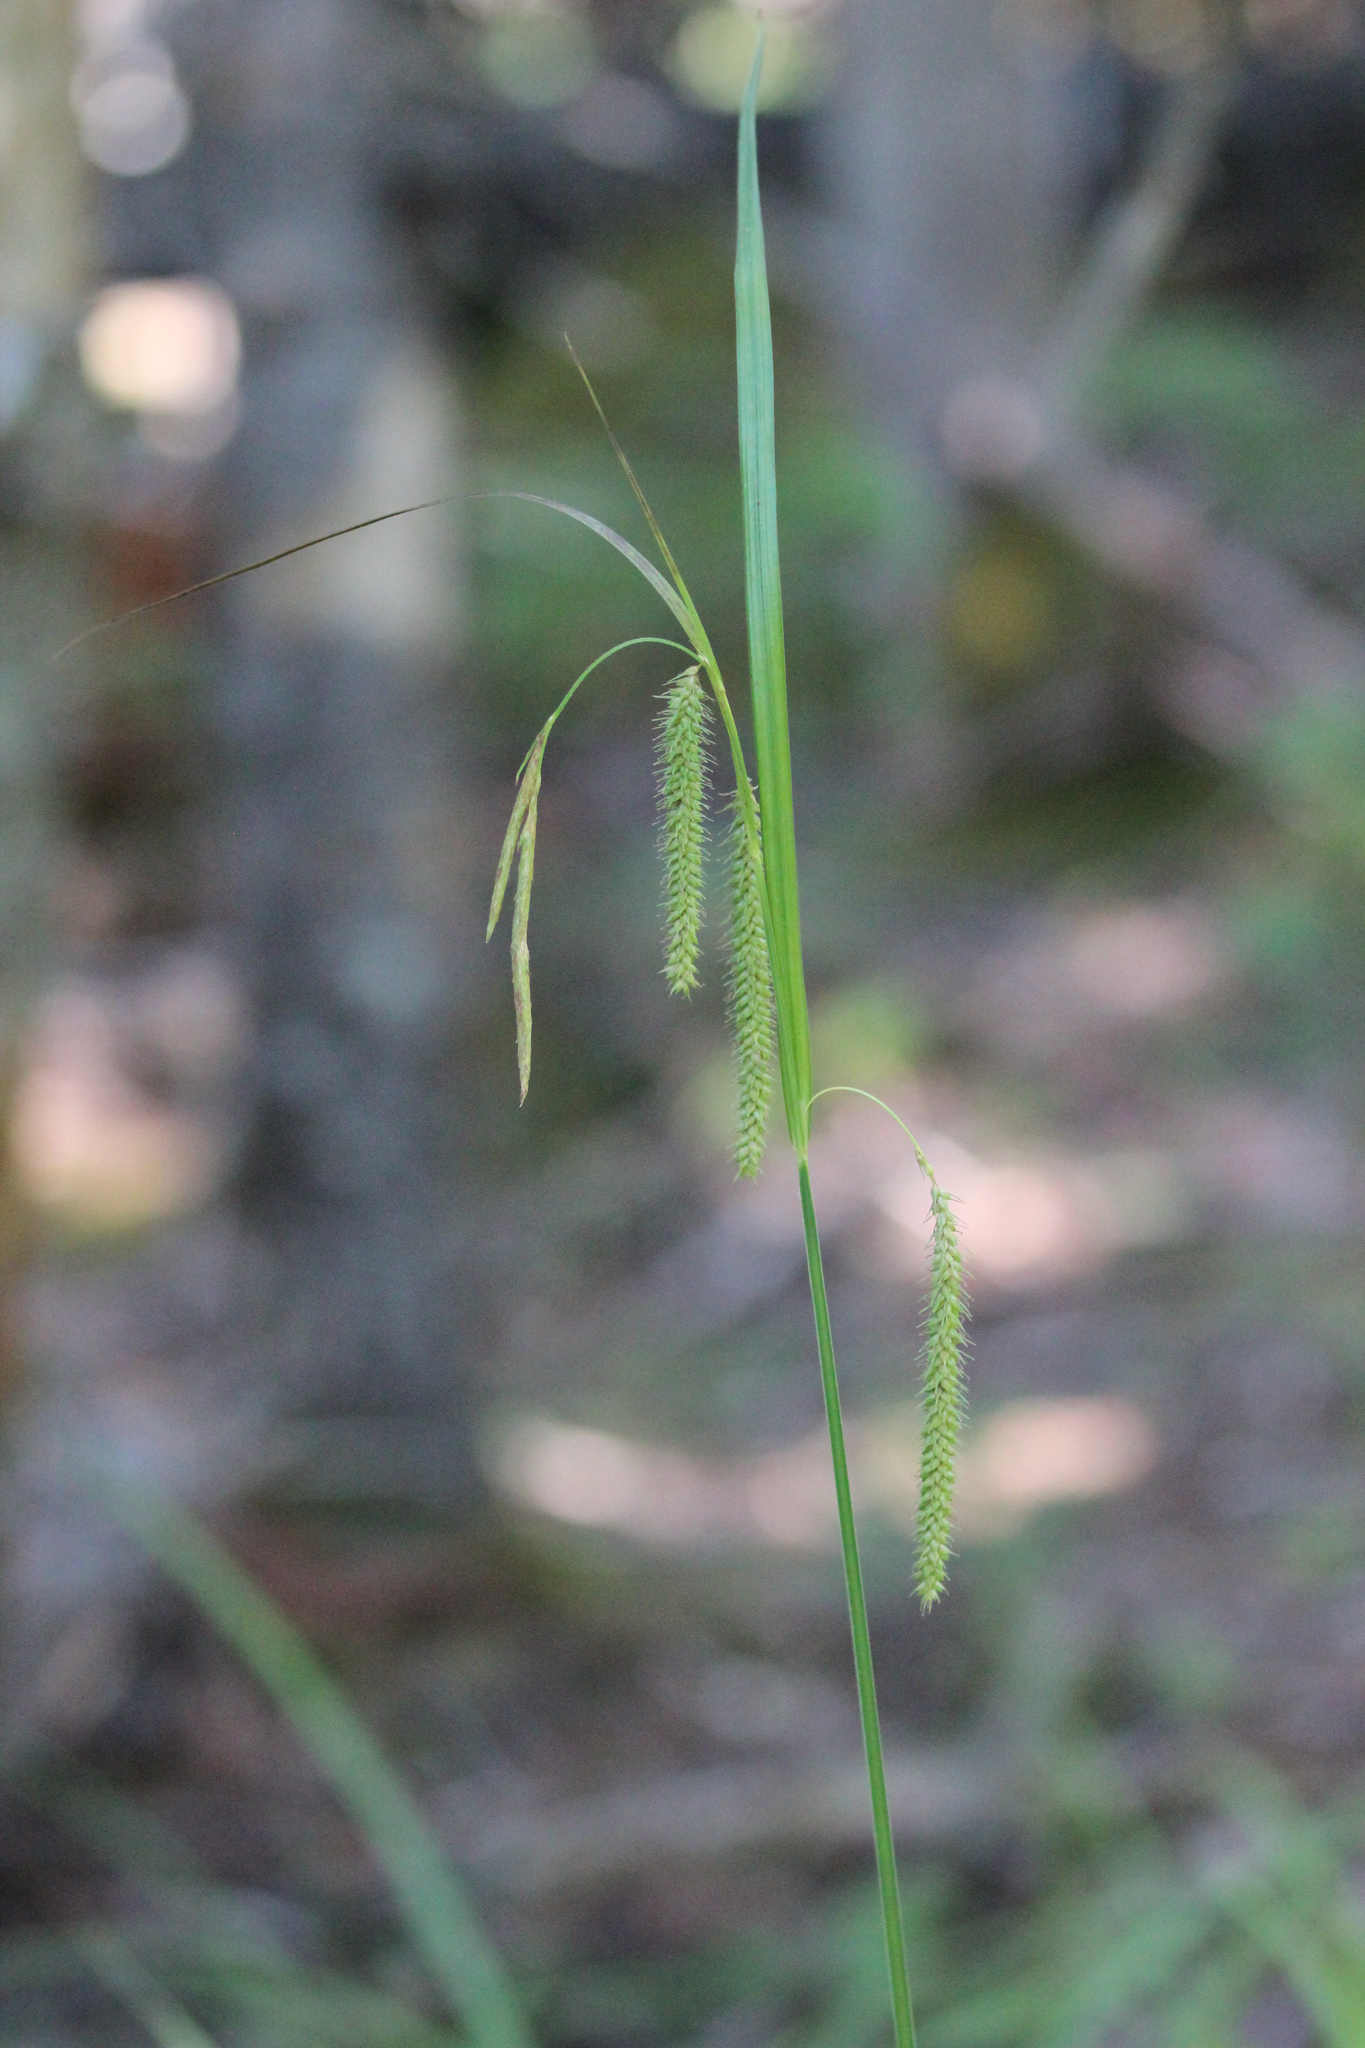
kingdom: Plantae
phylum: Tracheophyta
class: Liliopsida
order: Poales
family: Cyperaceae
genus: Carex
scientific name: Carex crinita
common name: Fringed sedge
